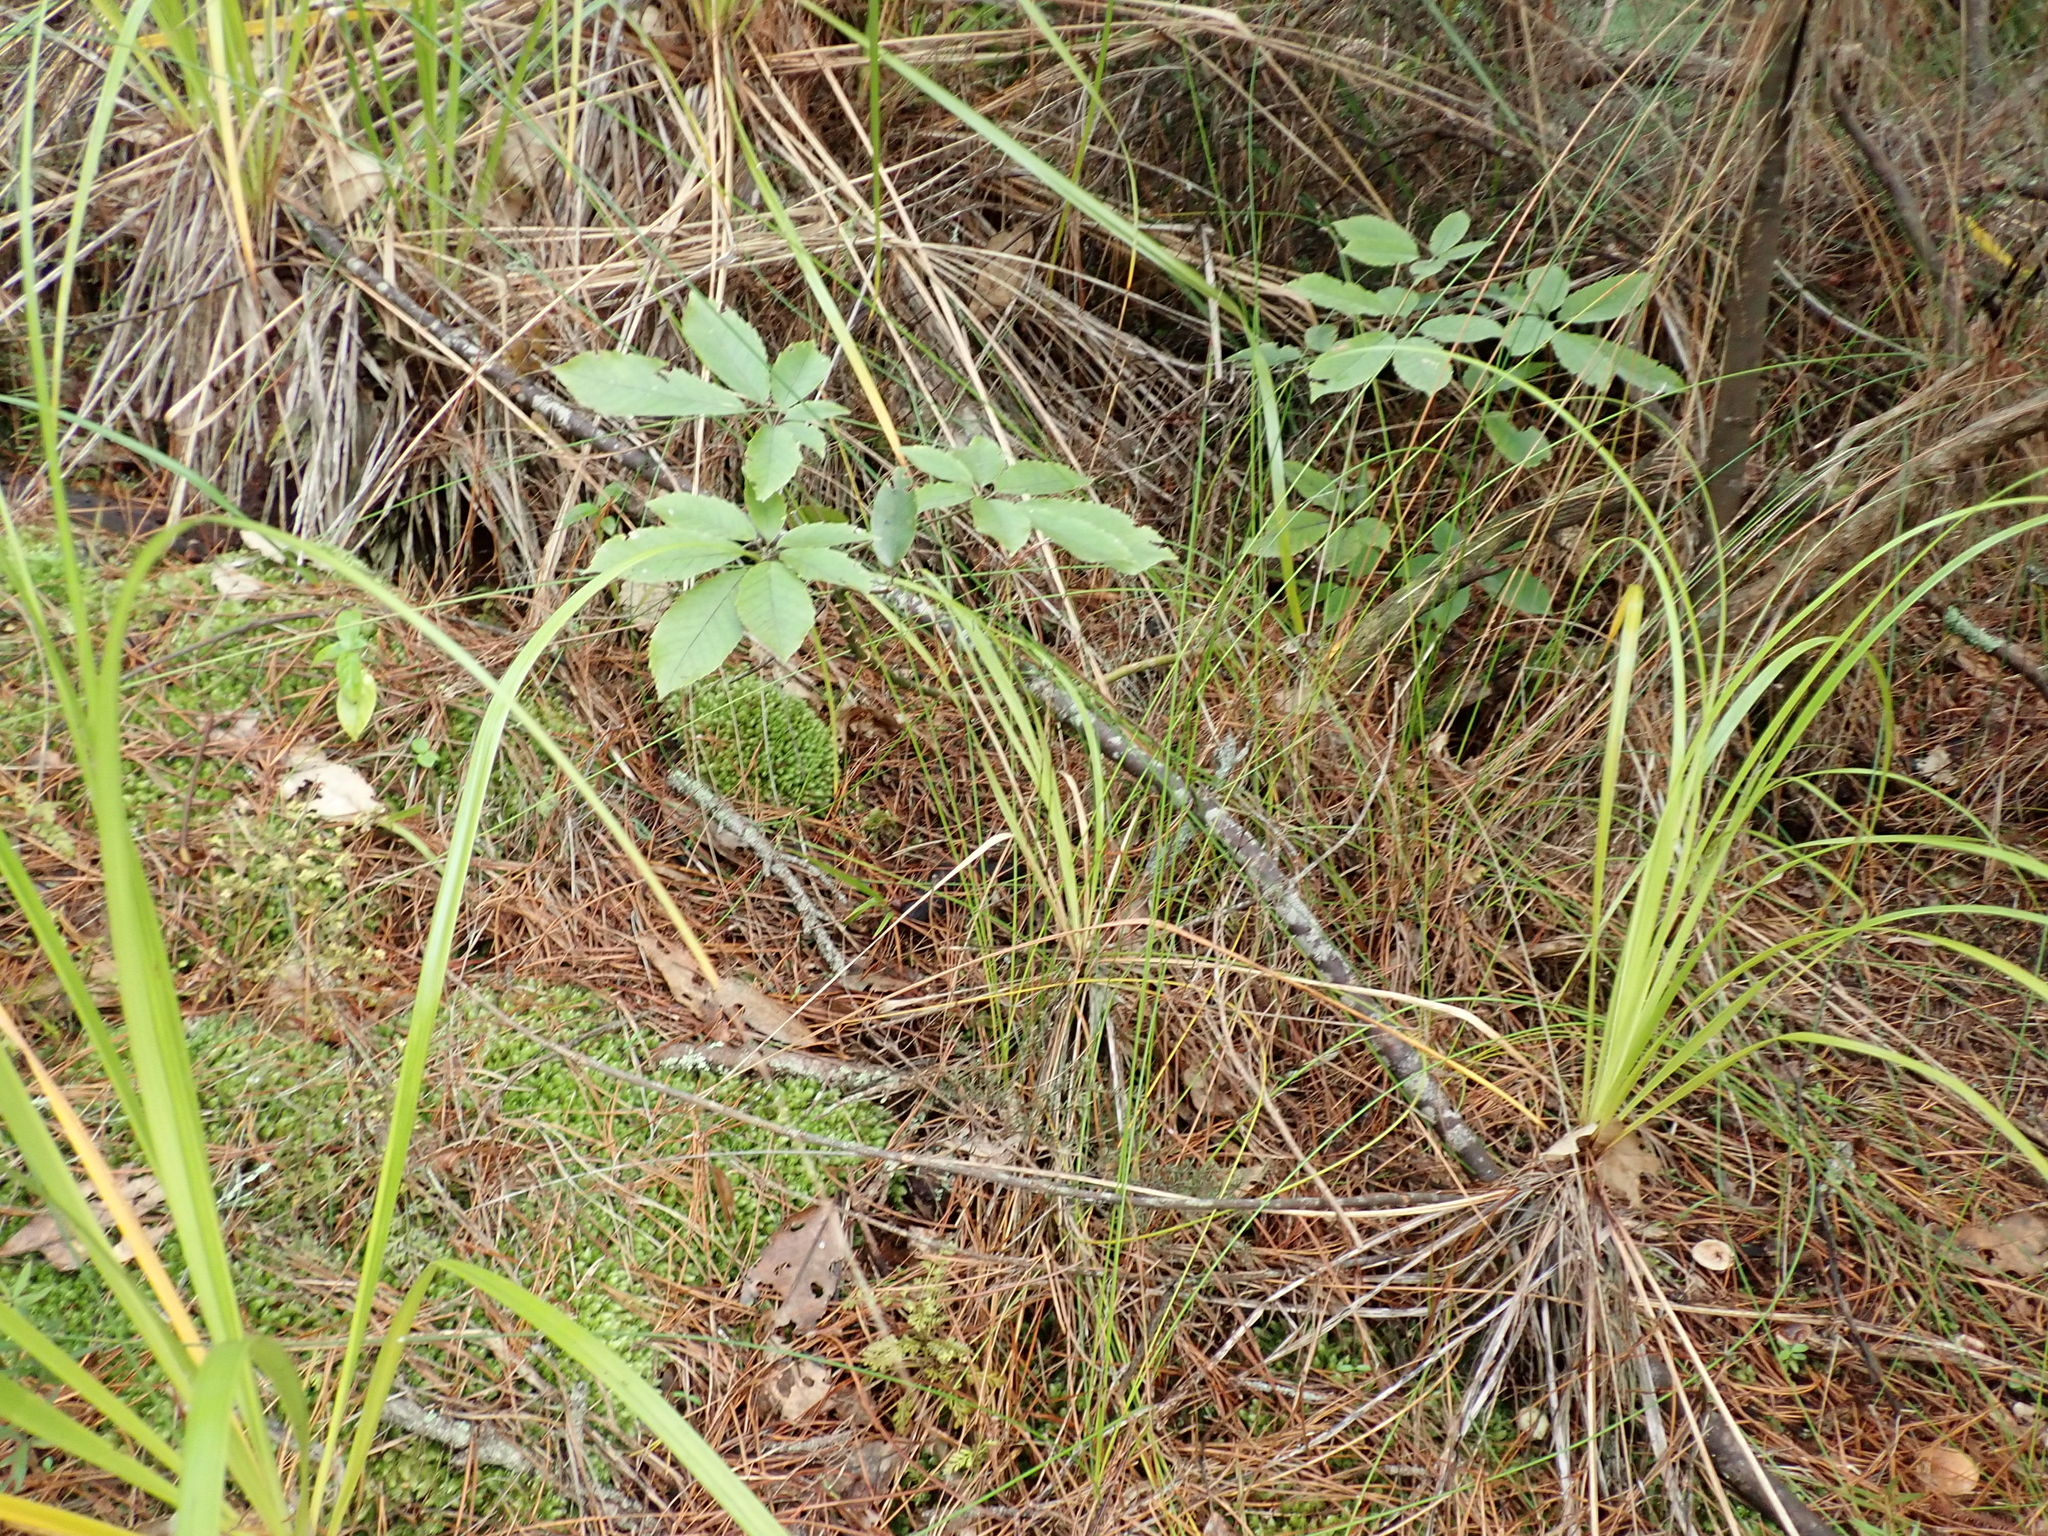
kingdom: Plantae
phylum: Tracheophyta
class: Magnoliopsida
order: Apiales
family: Araliaceae
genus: Neopanax
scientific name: Neopanax arboreus
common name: Five-fingers
